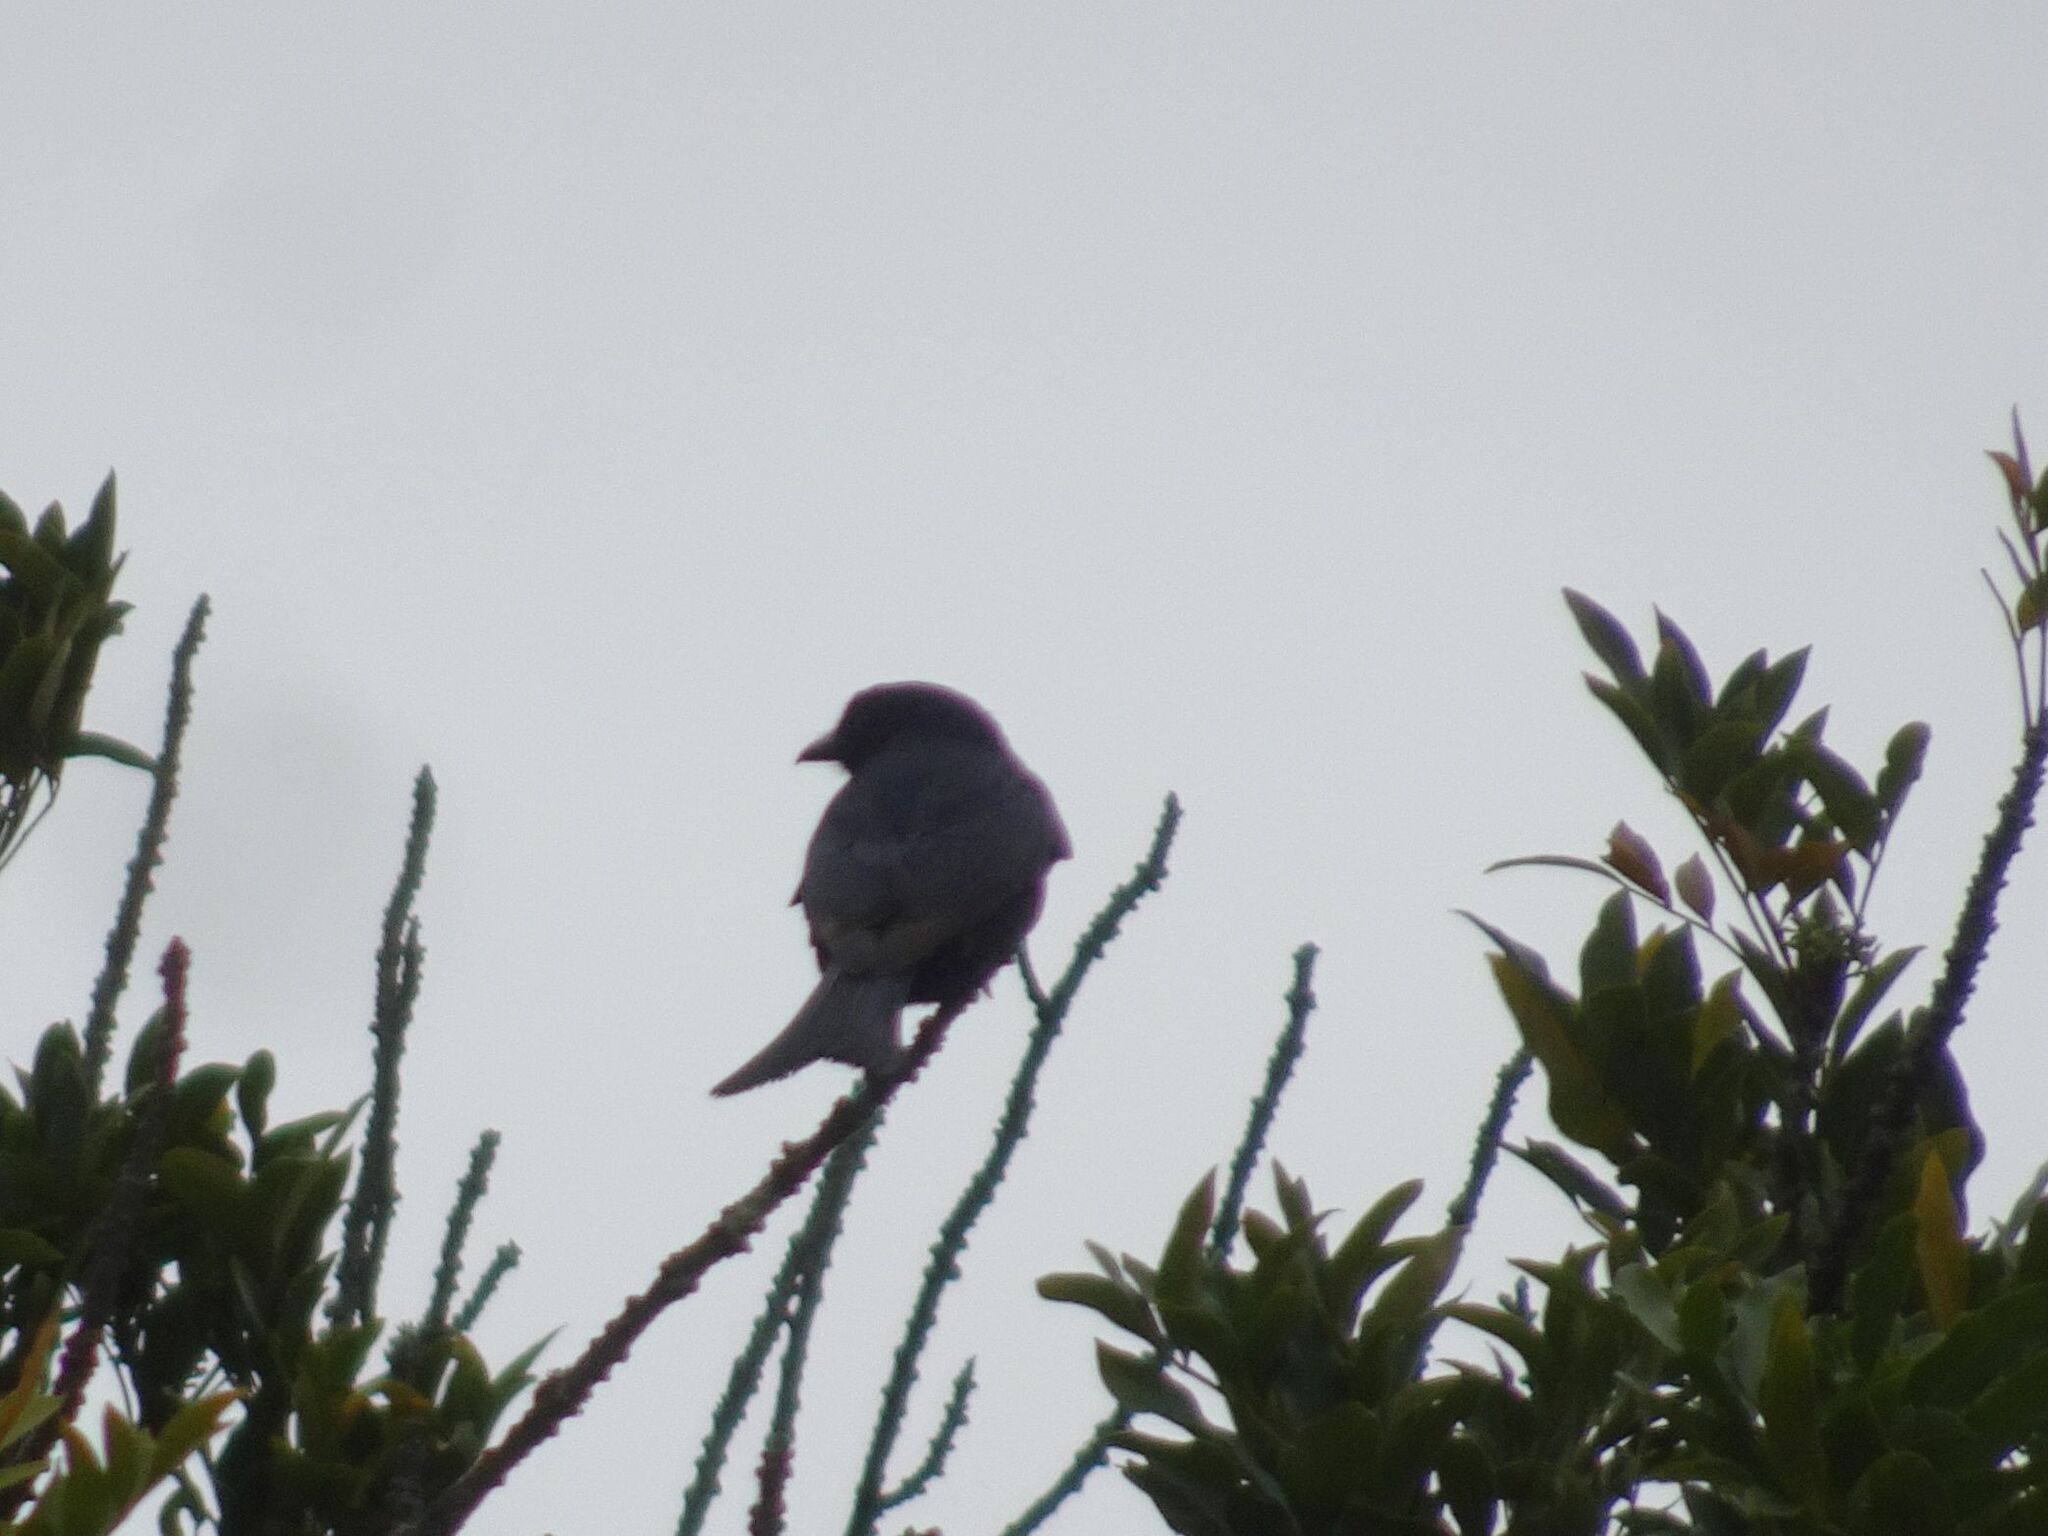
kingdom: Animalia
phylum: Chordata
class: Aves
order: Passeriformes
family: Dicruridae
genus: Dicrurus
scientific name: Dicrurus adsimilis
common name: Fork-tailed drongo
